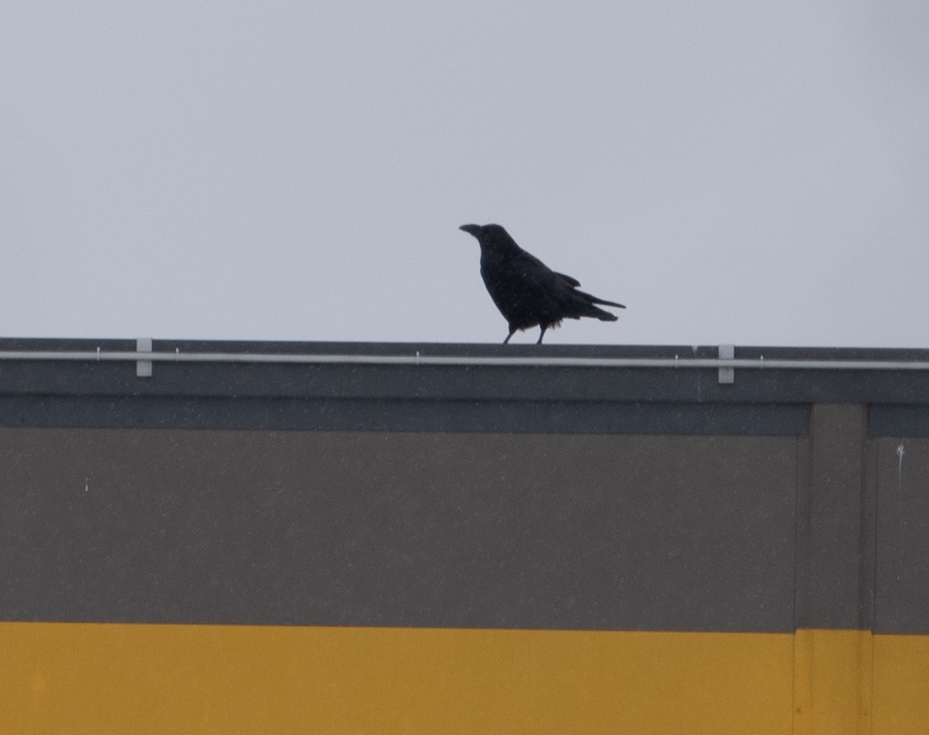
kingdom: Animalia
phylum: Chordata
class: Aves
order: Passeriformes
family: Corvidae
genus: Corvus
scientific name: Corvus corax
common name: Common raven
